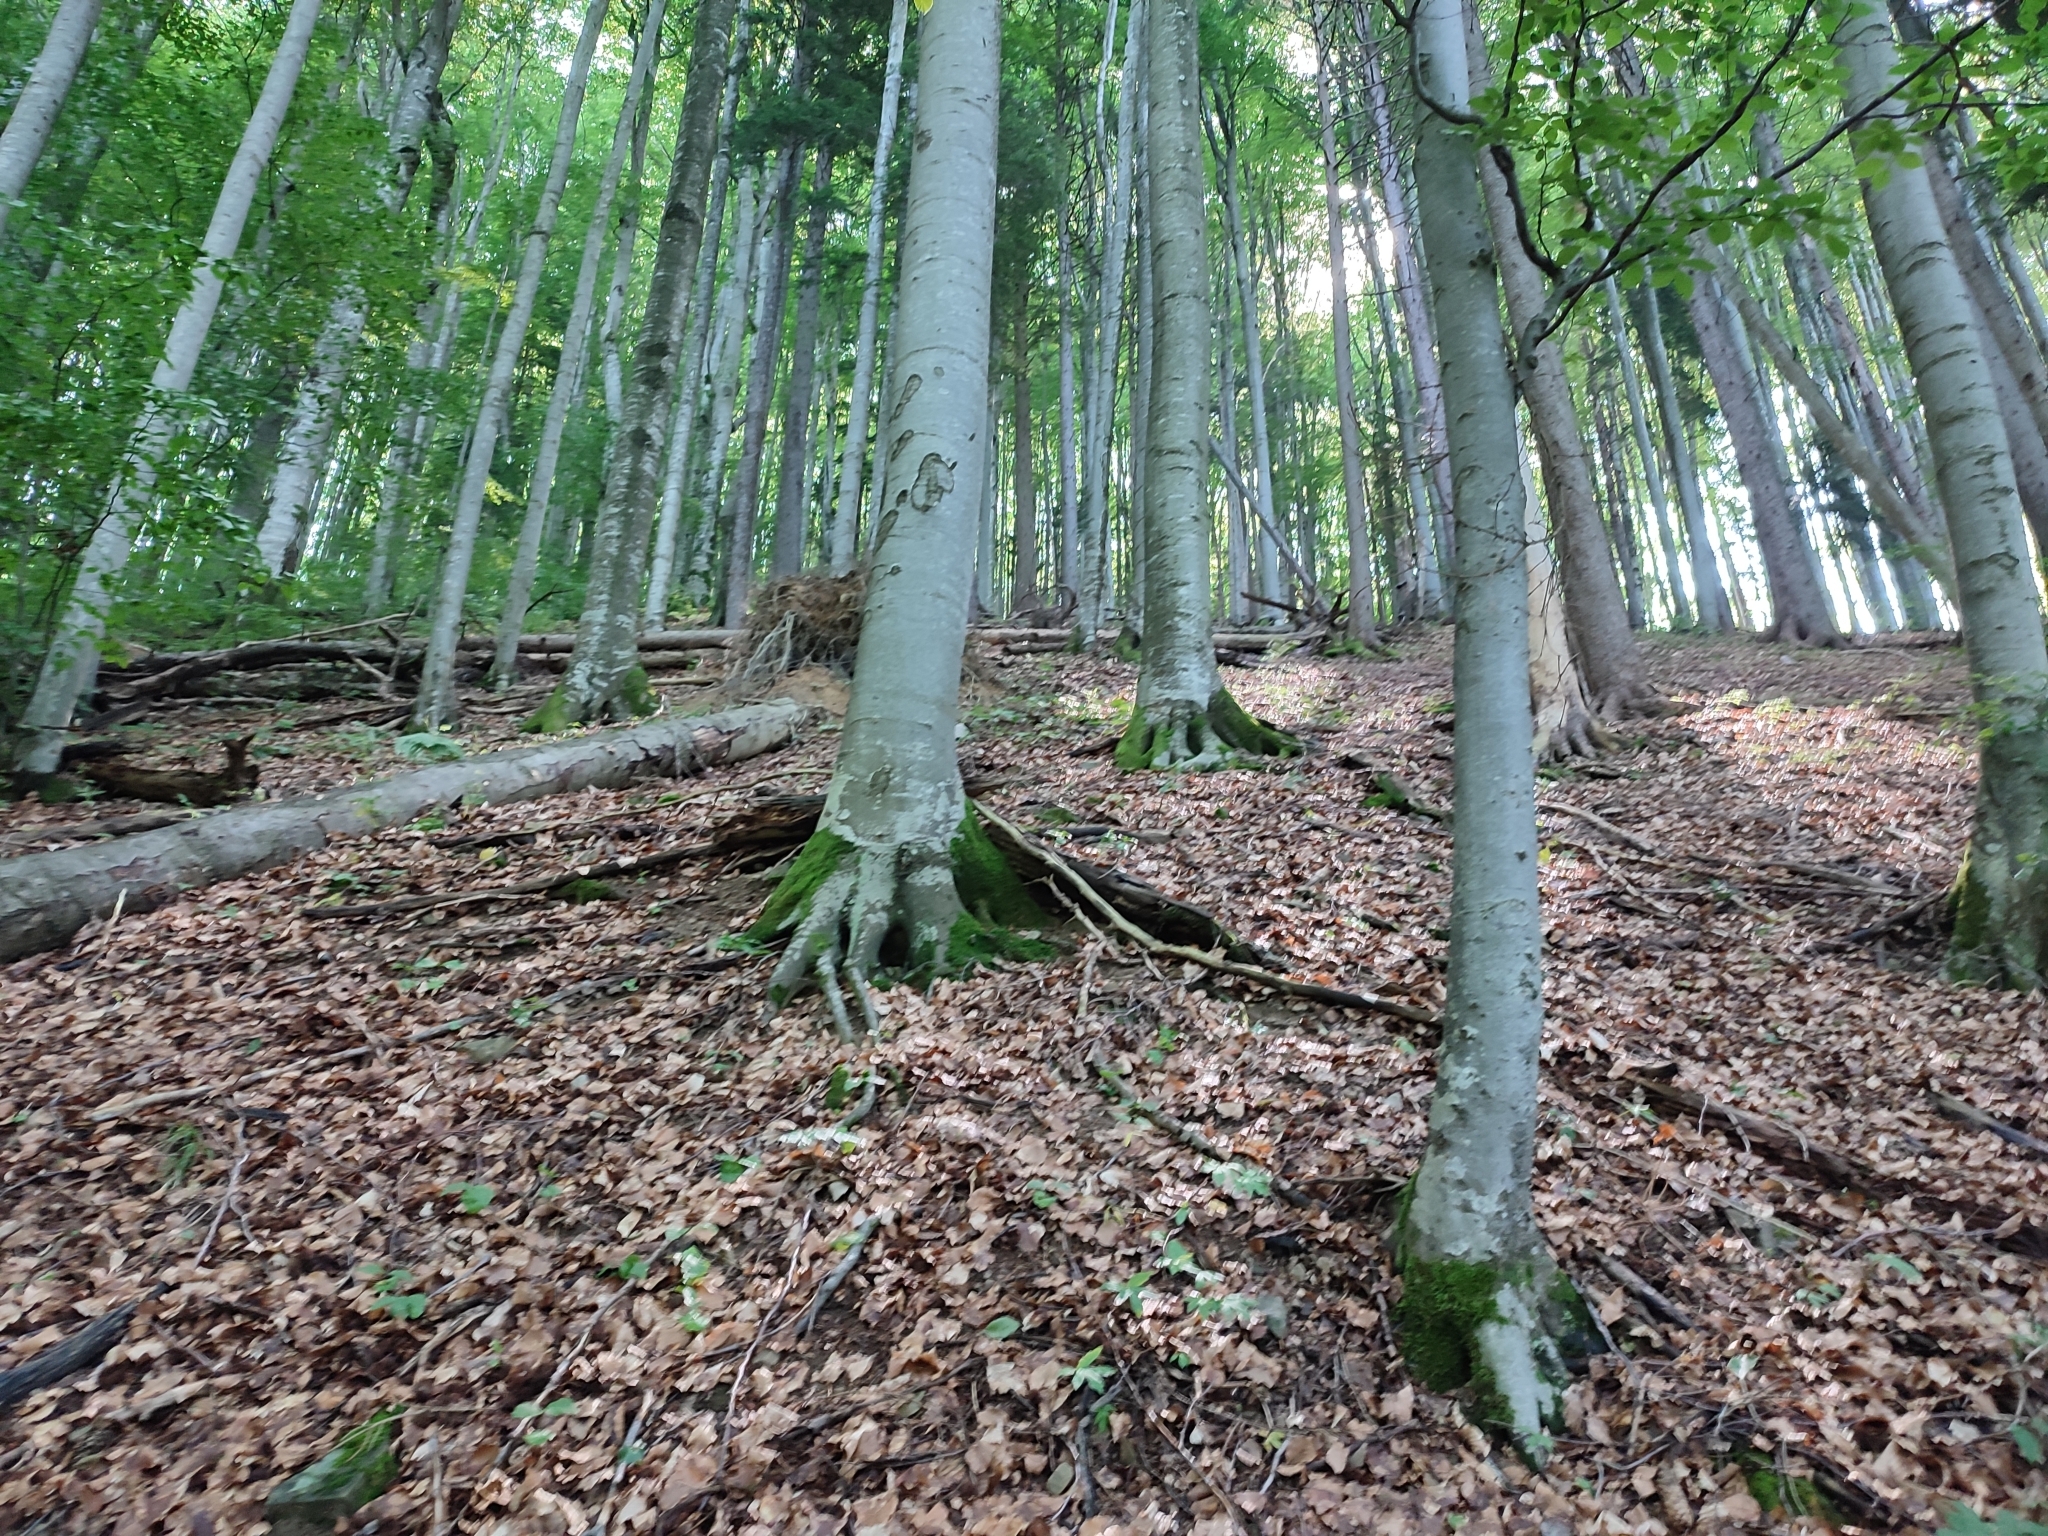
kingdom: Plantae
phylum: Tracheophyta
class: Magnoliopsida
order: Fagales
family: Fagaceae
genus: Fagus
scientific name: Fagus sylvatica
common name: Beech
